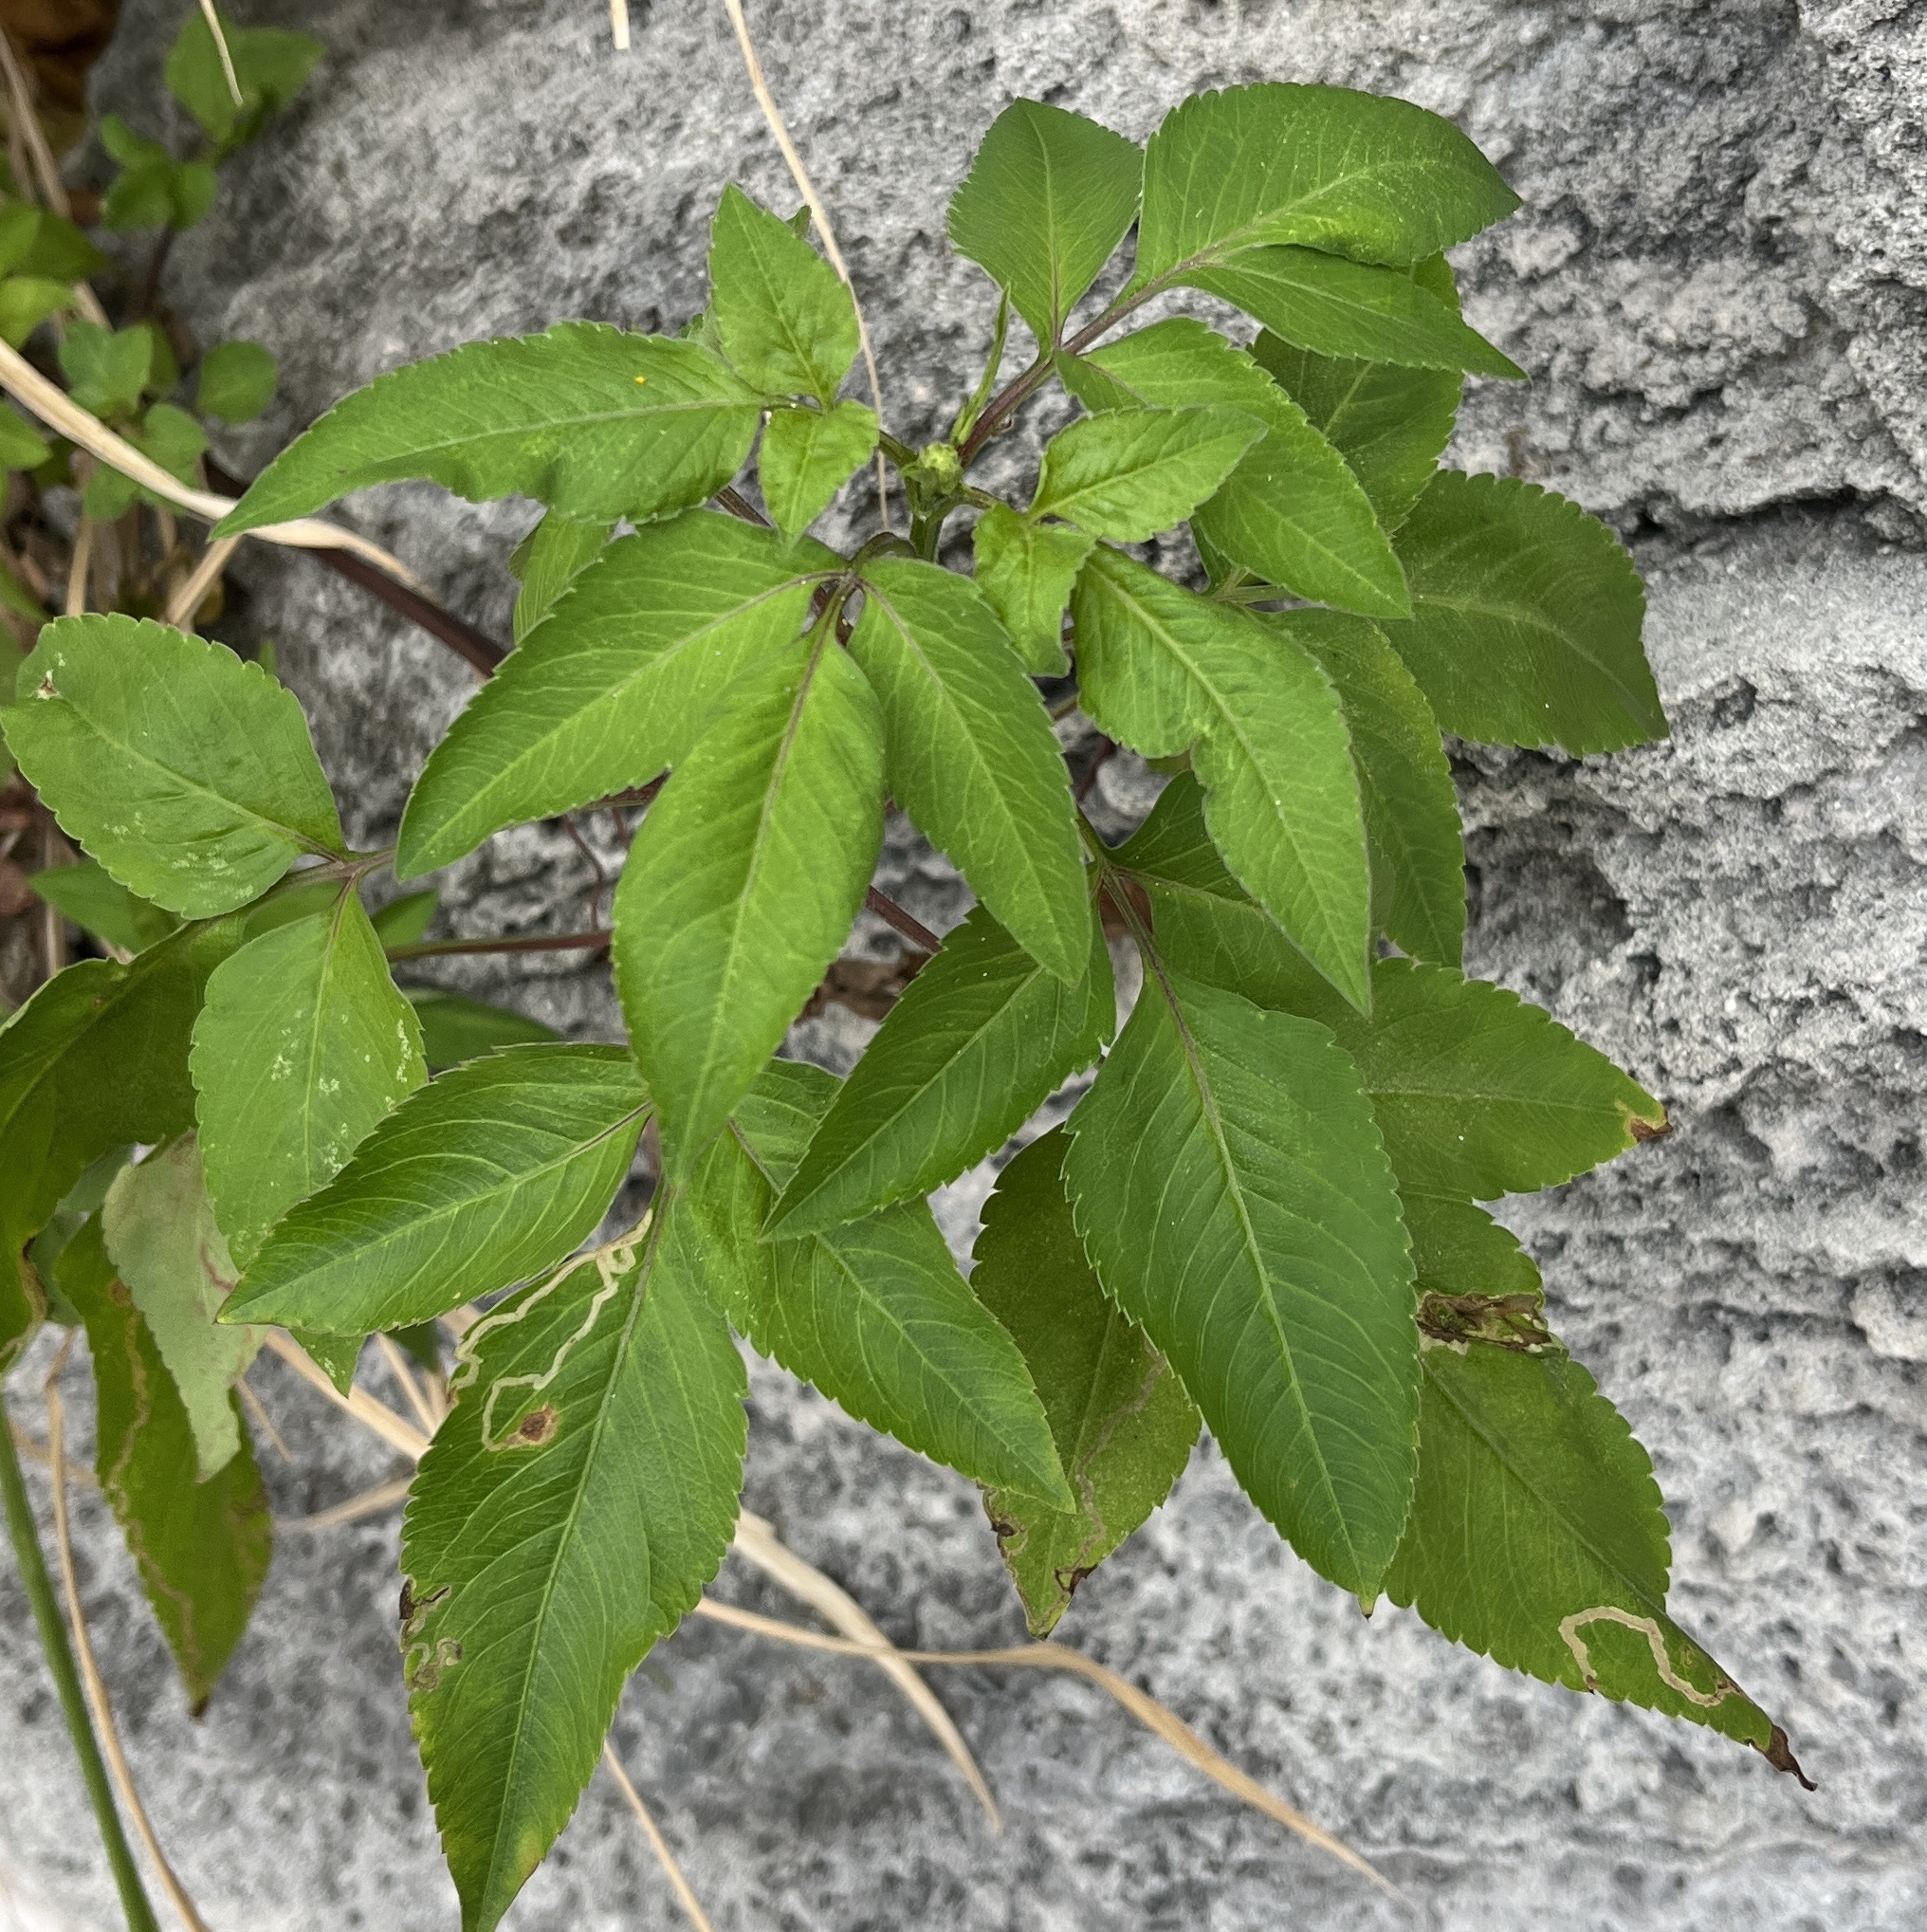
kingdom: Plantae
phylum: Tracheophyta
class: Magnoliopsida
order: Asterales
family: Asteraceae
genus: Bidens
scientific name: Bidens pilosa
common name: Black-jack
